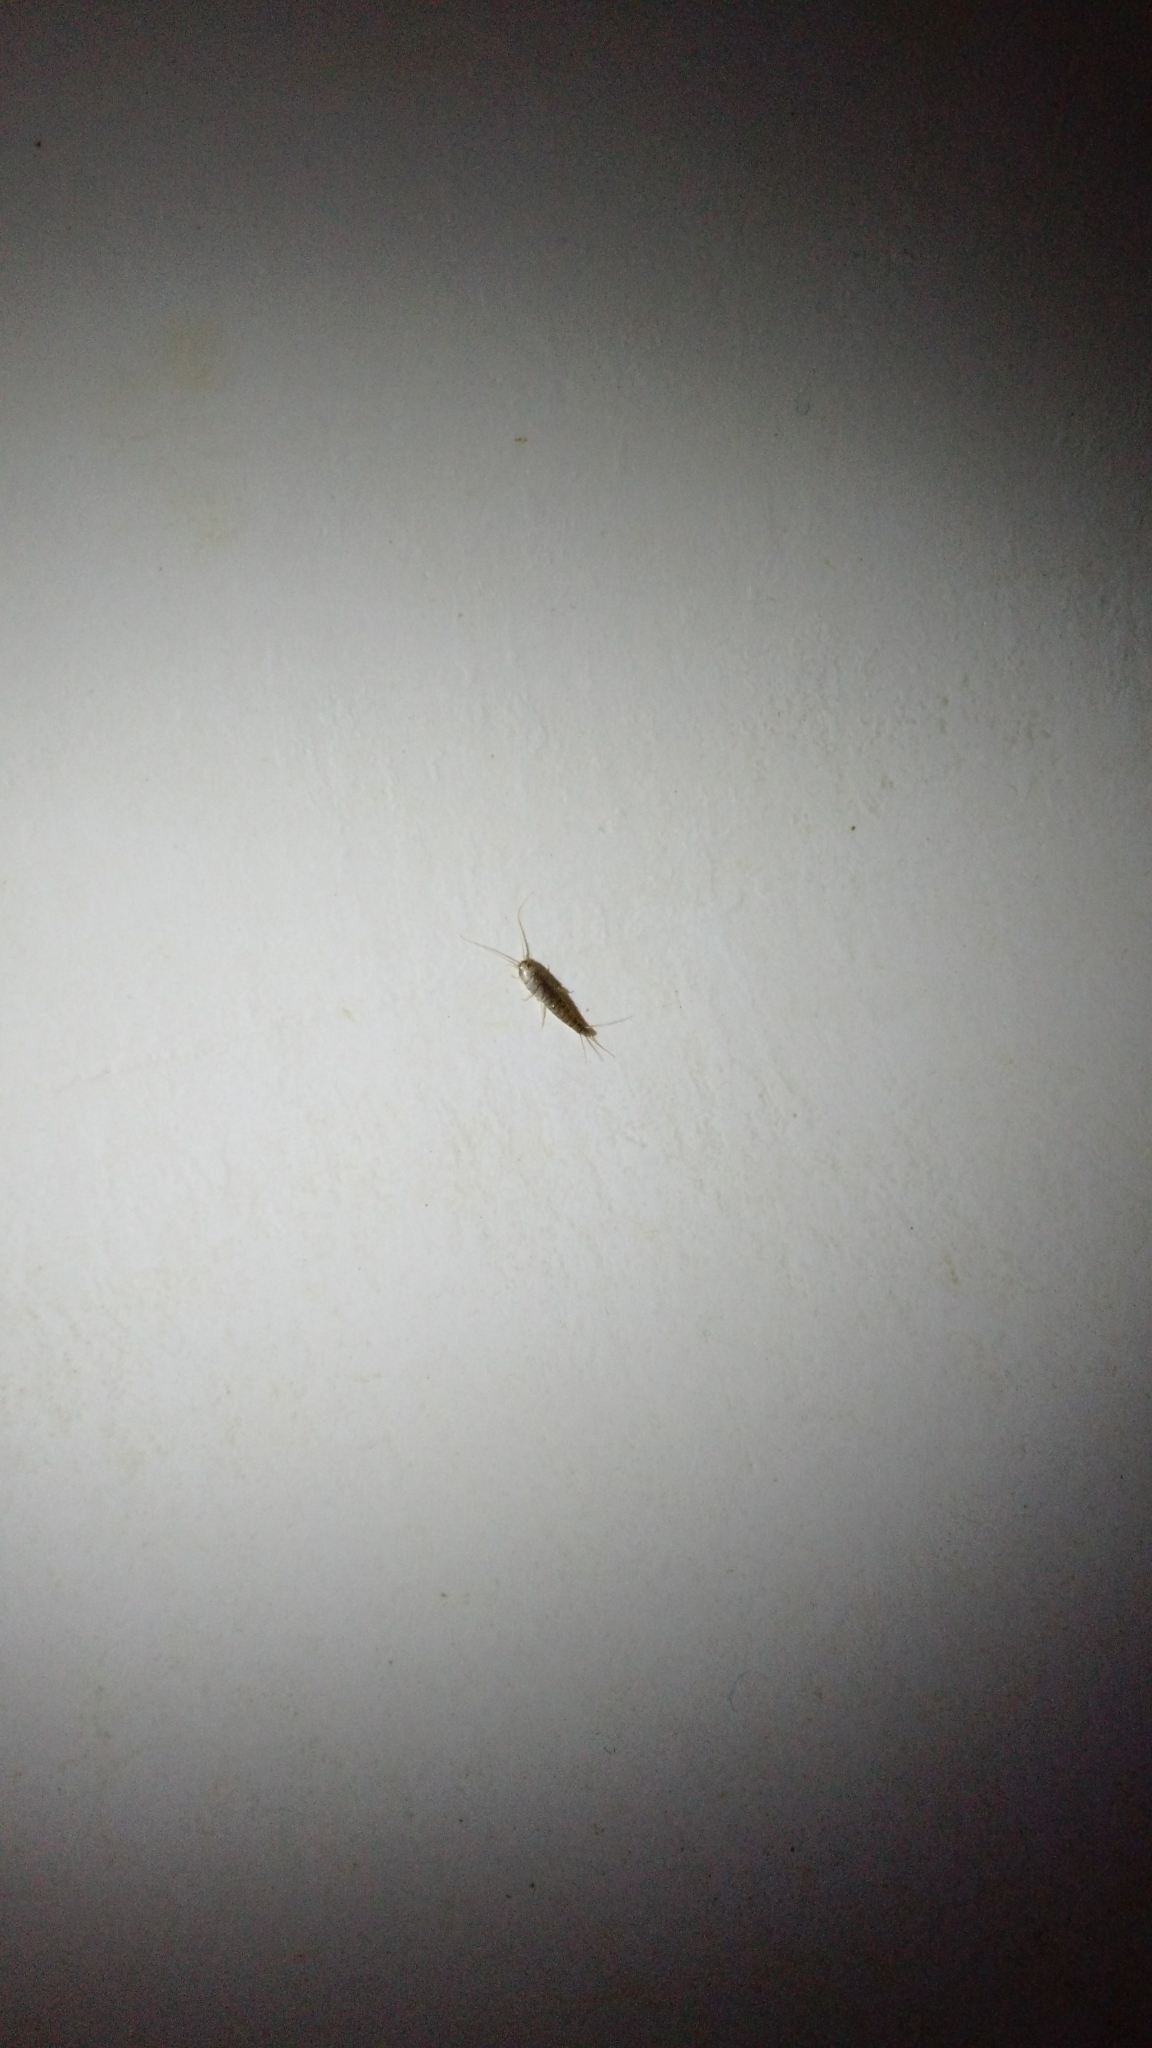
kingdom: Animalia
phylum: Arthropoda
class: Insecta
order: Zygentoma
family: Lepismatidae
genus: Lepisma
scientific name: Lepisma saccharinum
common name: Silverfish
